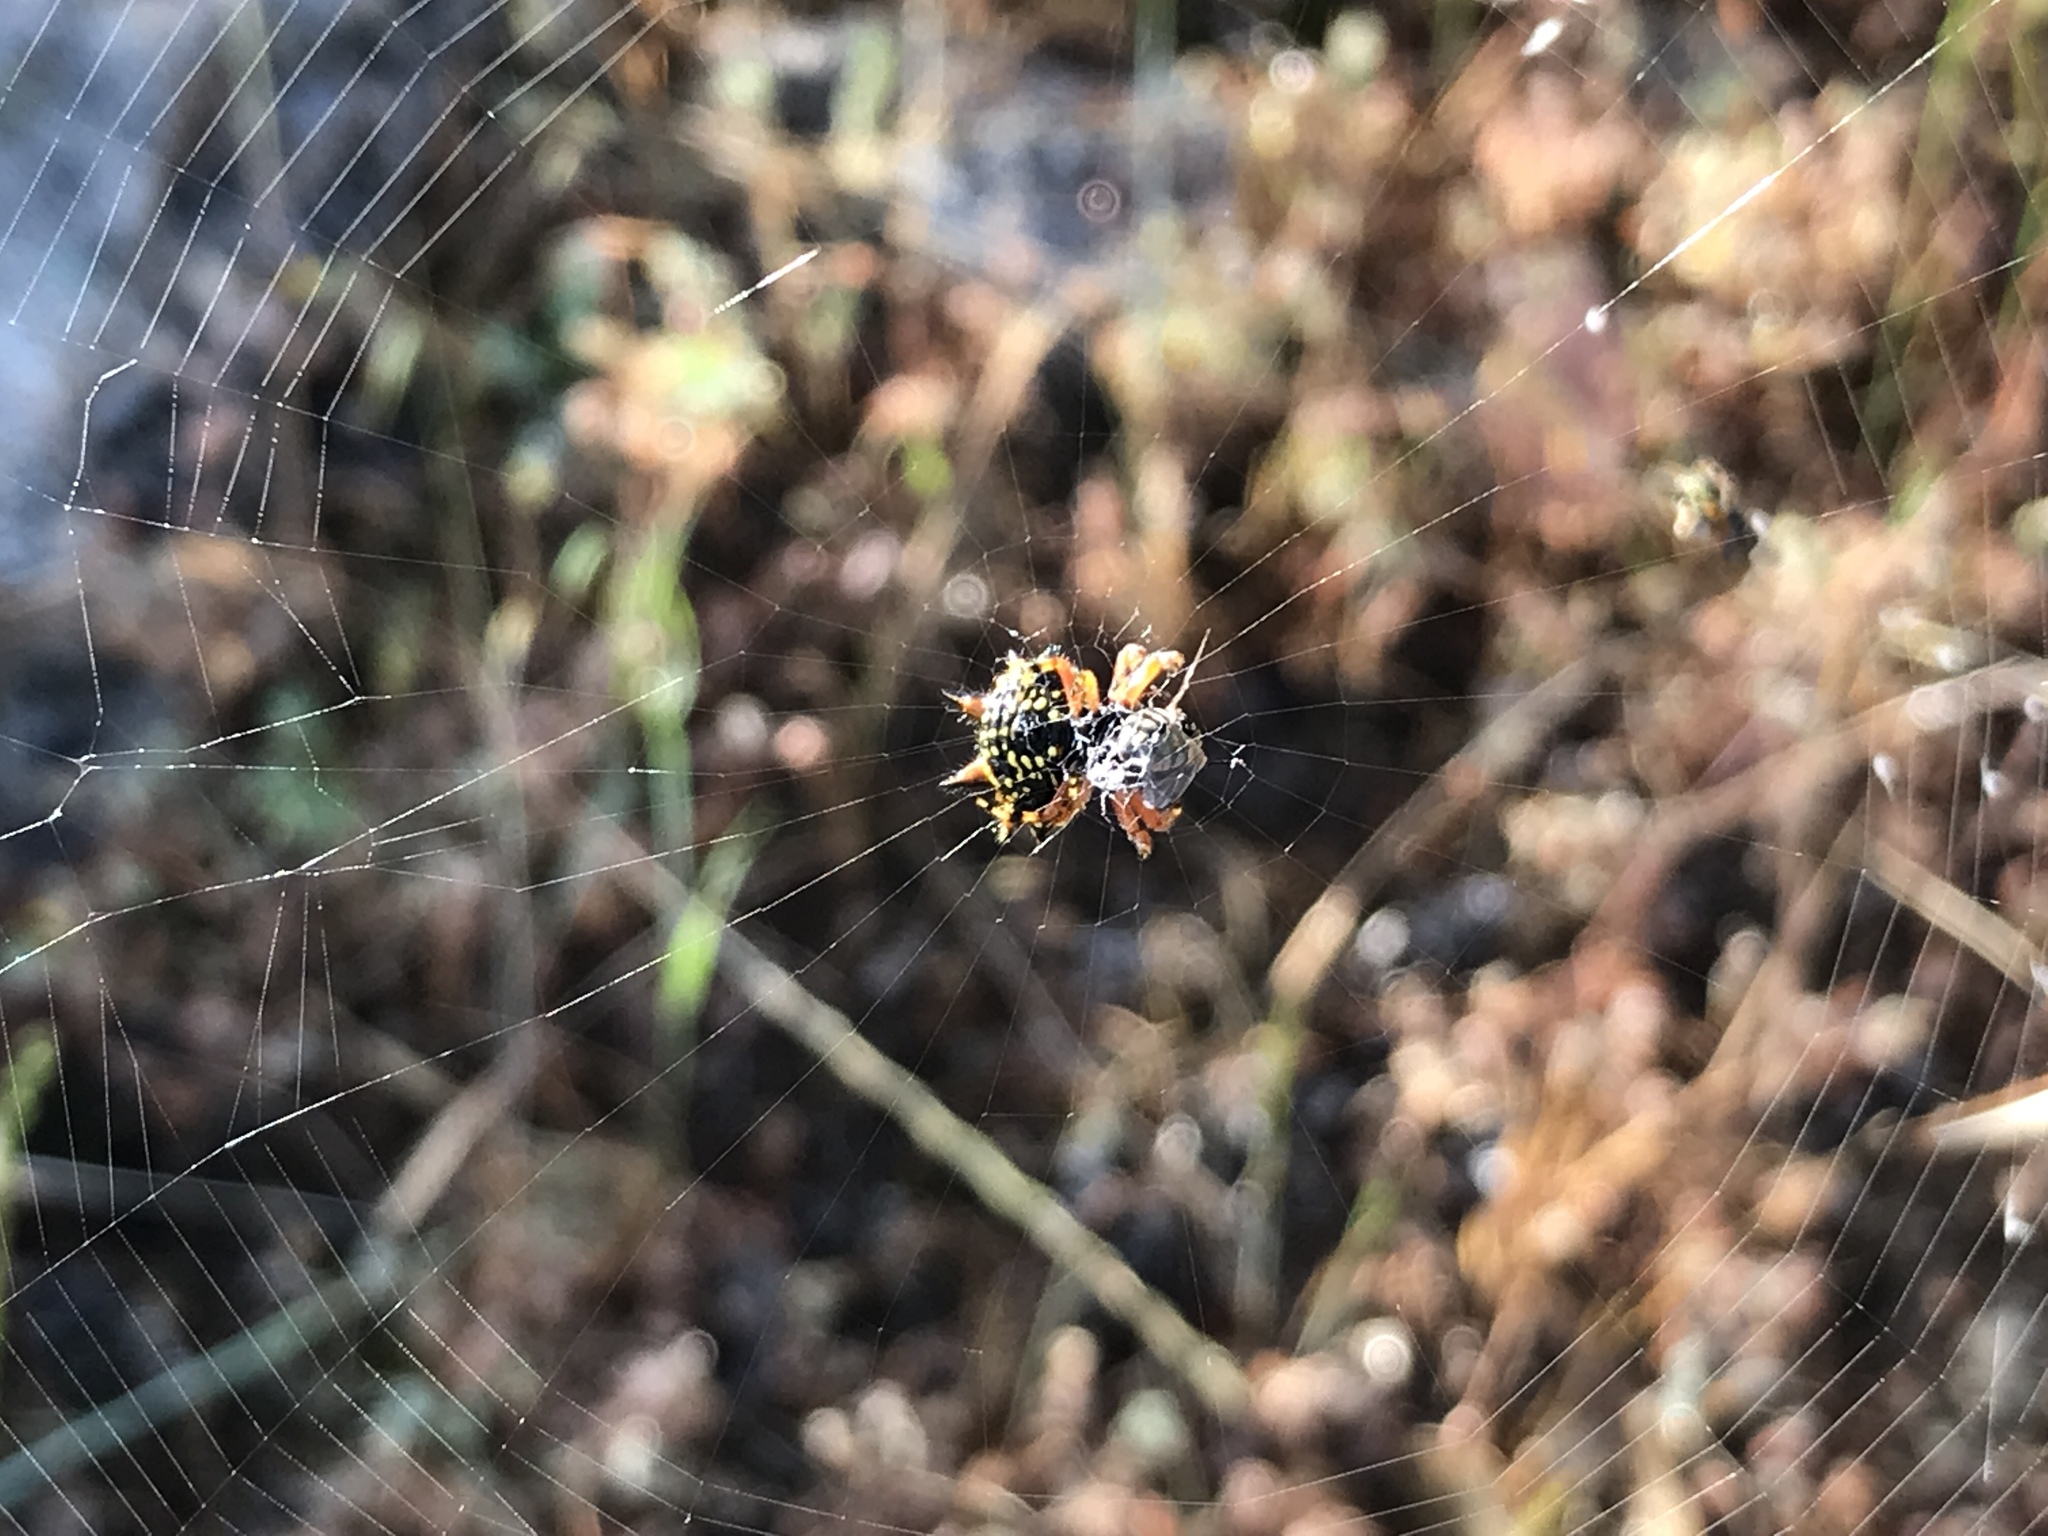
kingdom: Animalia
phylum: Arthropoda
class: Arachnida
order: Araneae
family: Araneidae
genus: Austracantha
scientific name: Austracantha minax
